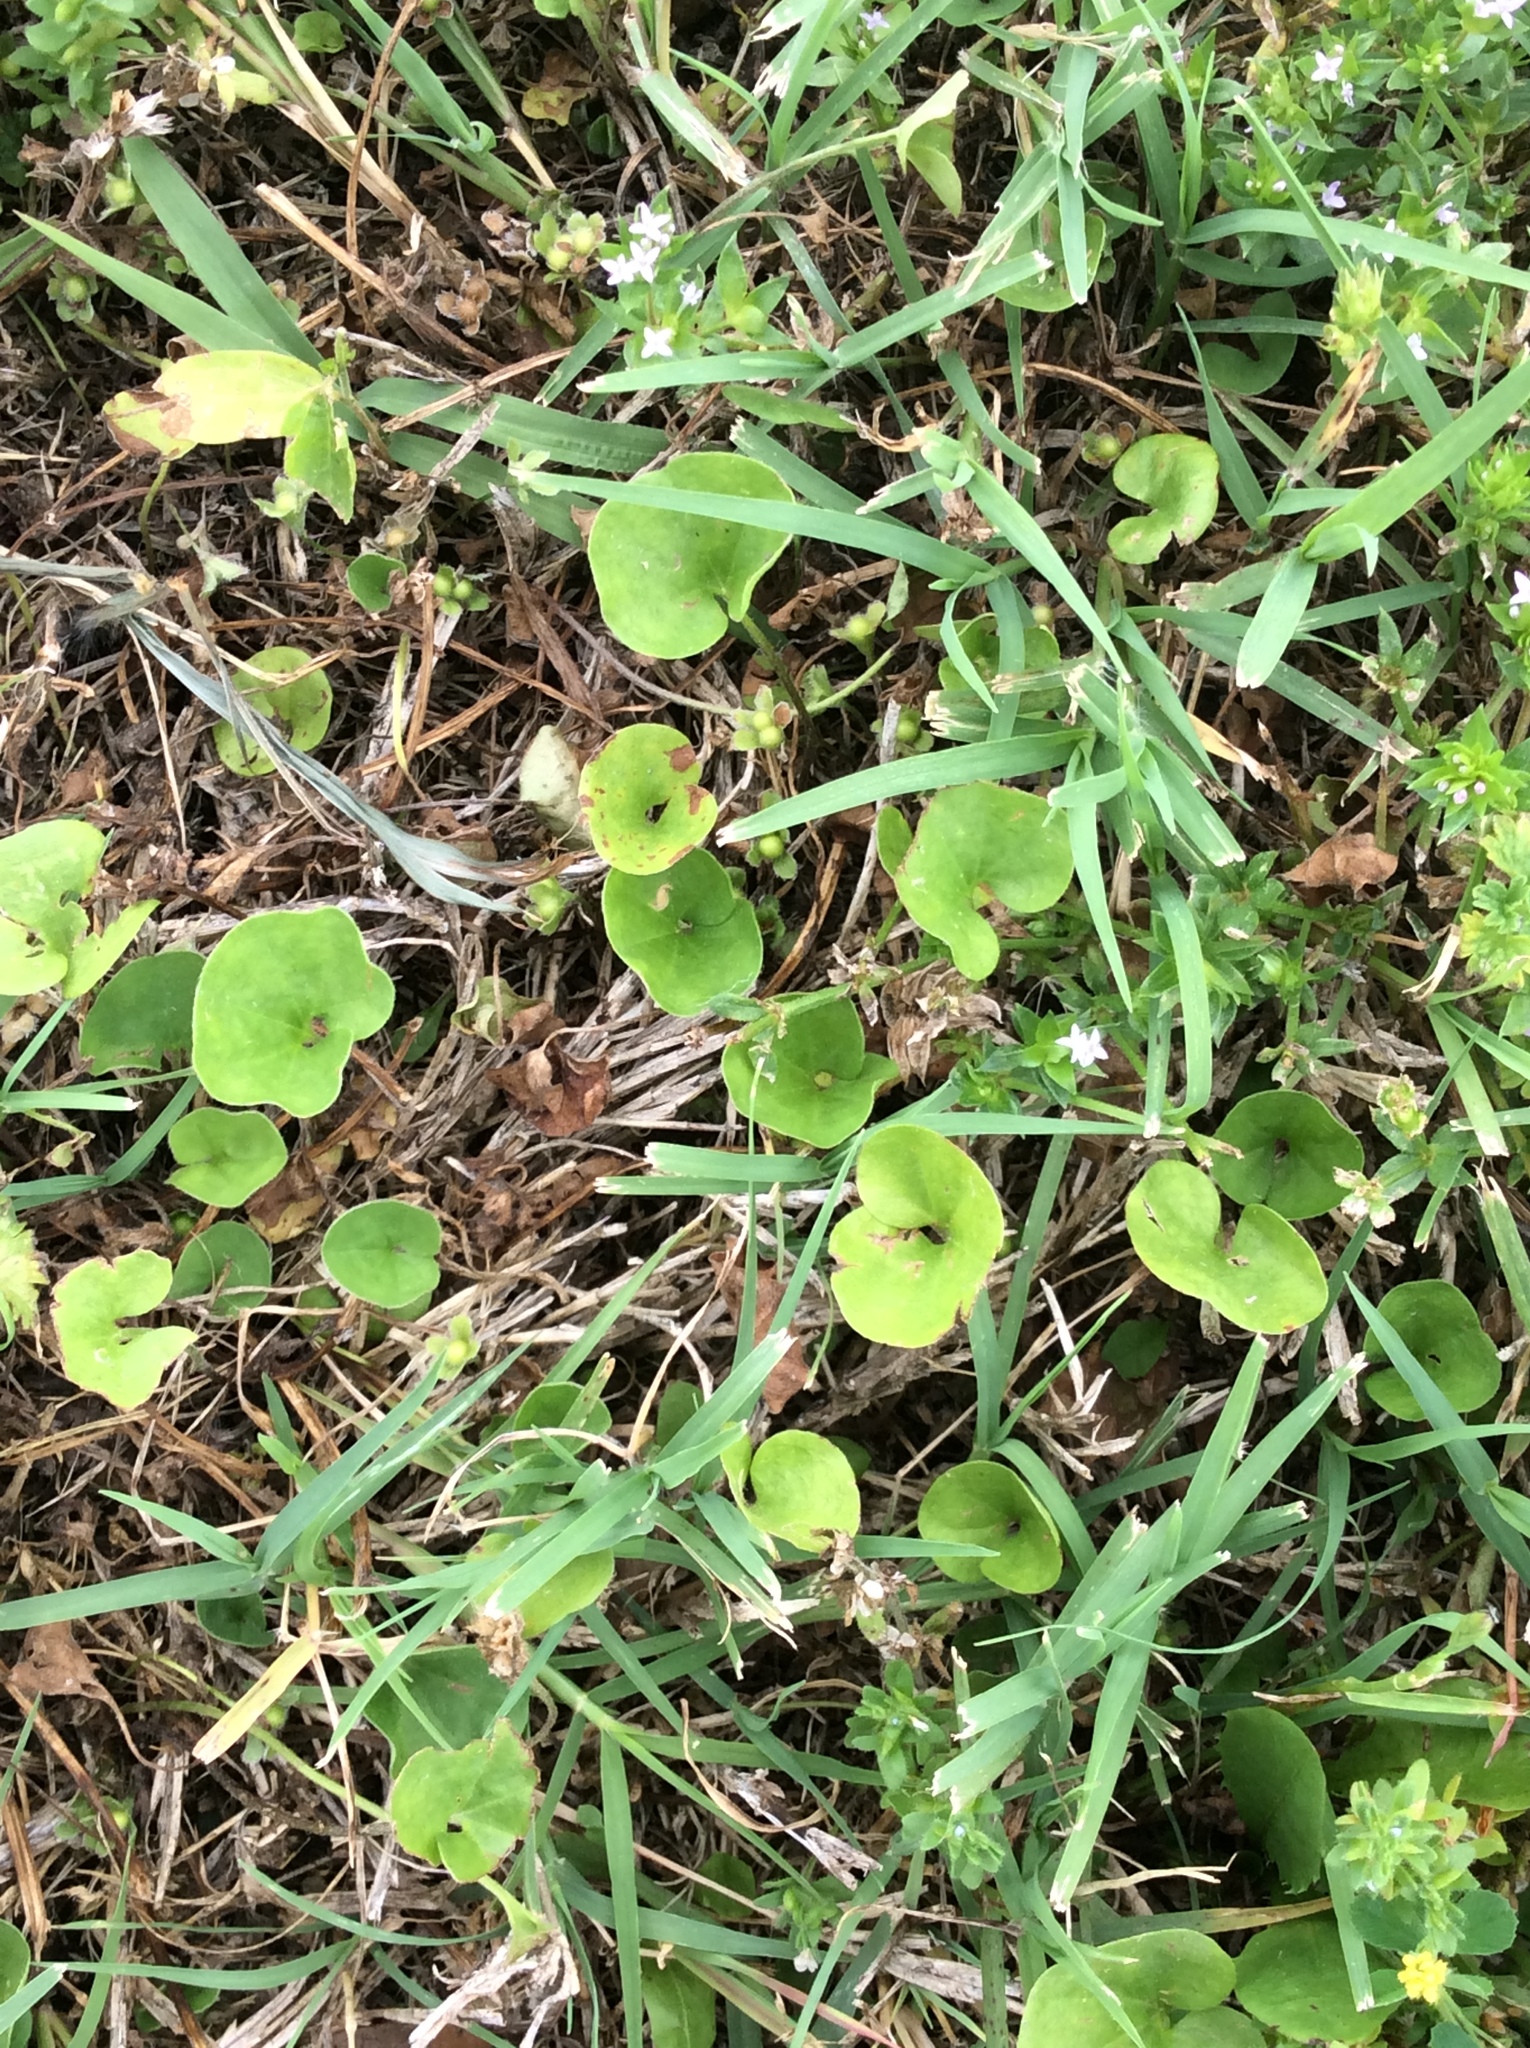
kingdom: Plantae
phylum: Tracheophyta
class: Magnoliopsida
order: Solanales
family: Convolvulaceae
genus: Dichondra
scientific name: Dichondra carolinensis
